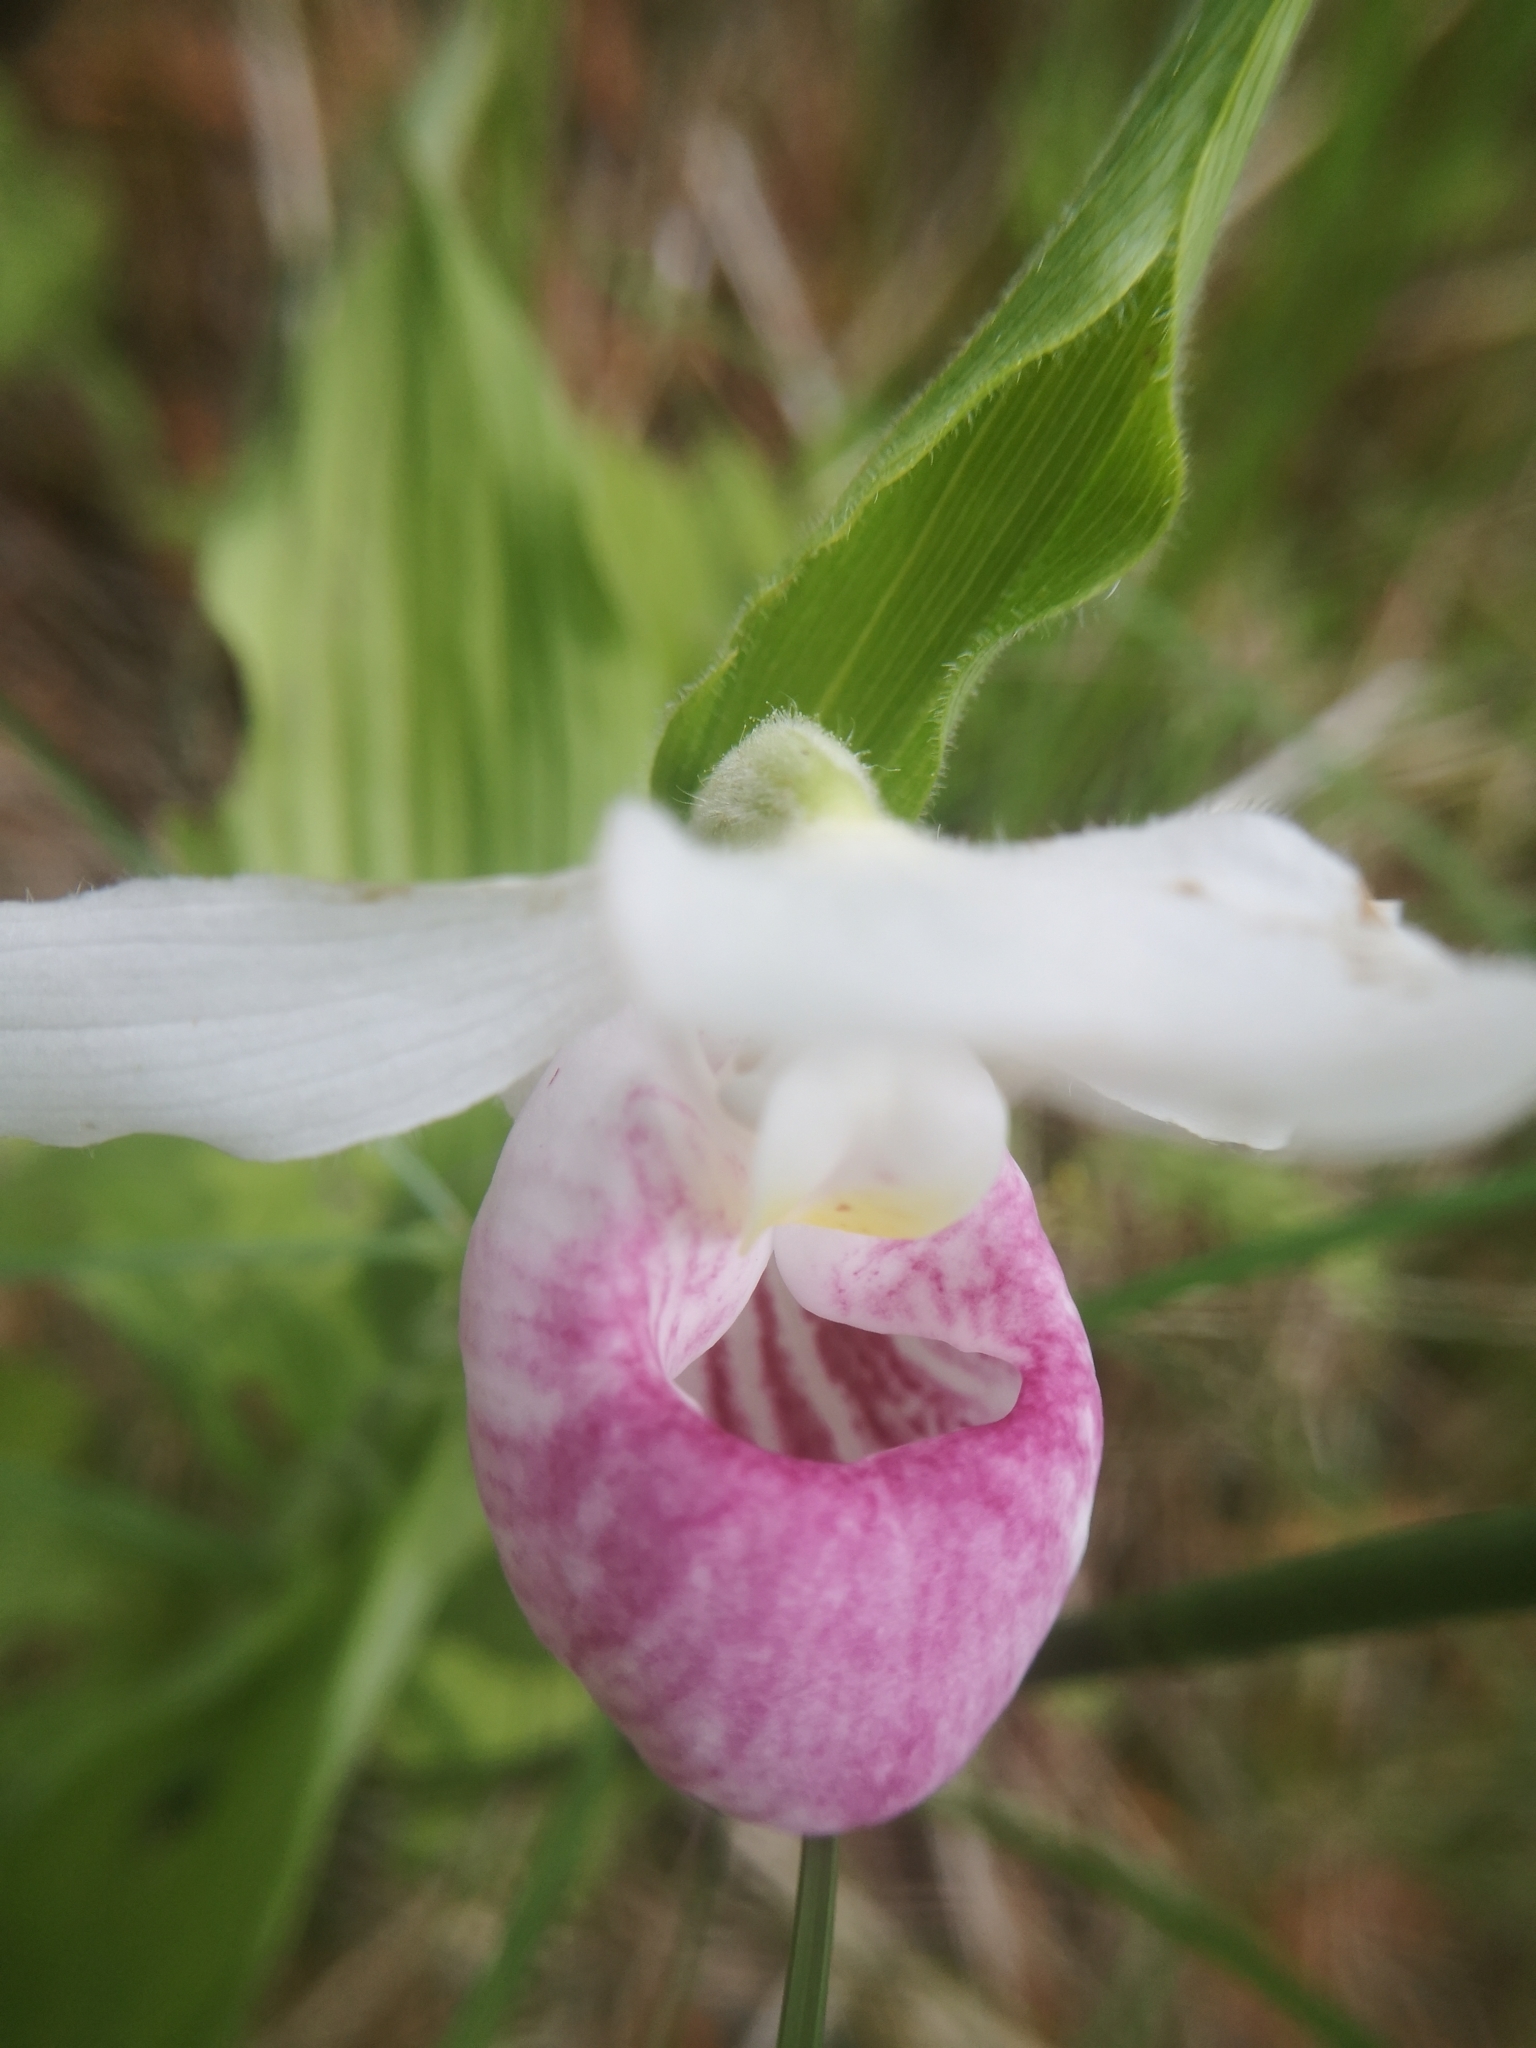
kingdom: Plantae
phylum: Tracheophyta
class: Liliopsida
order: Asparagales
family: Orchidaceae
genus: Cypripedium
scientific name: Cypripedium reginae
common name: Queen lady's-slipper
